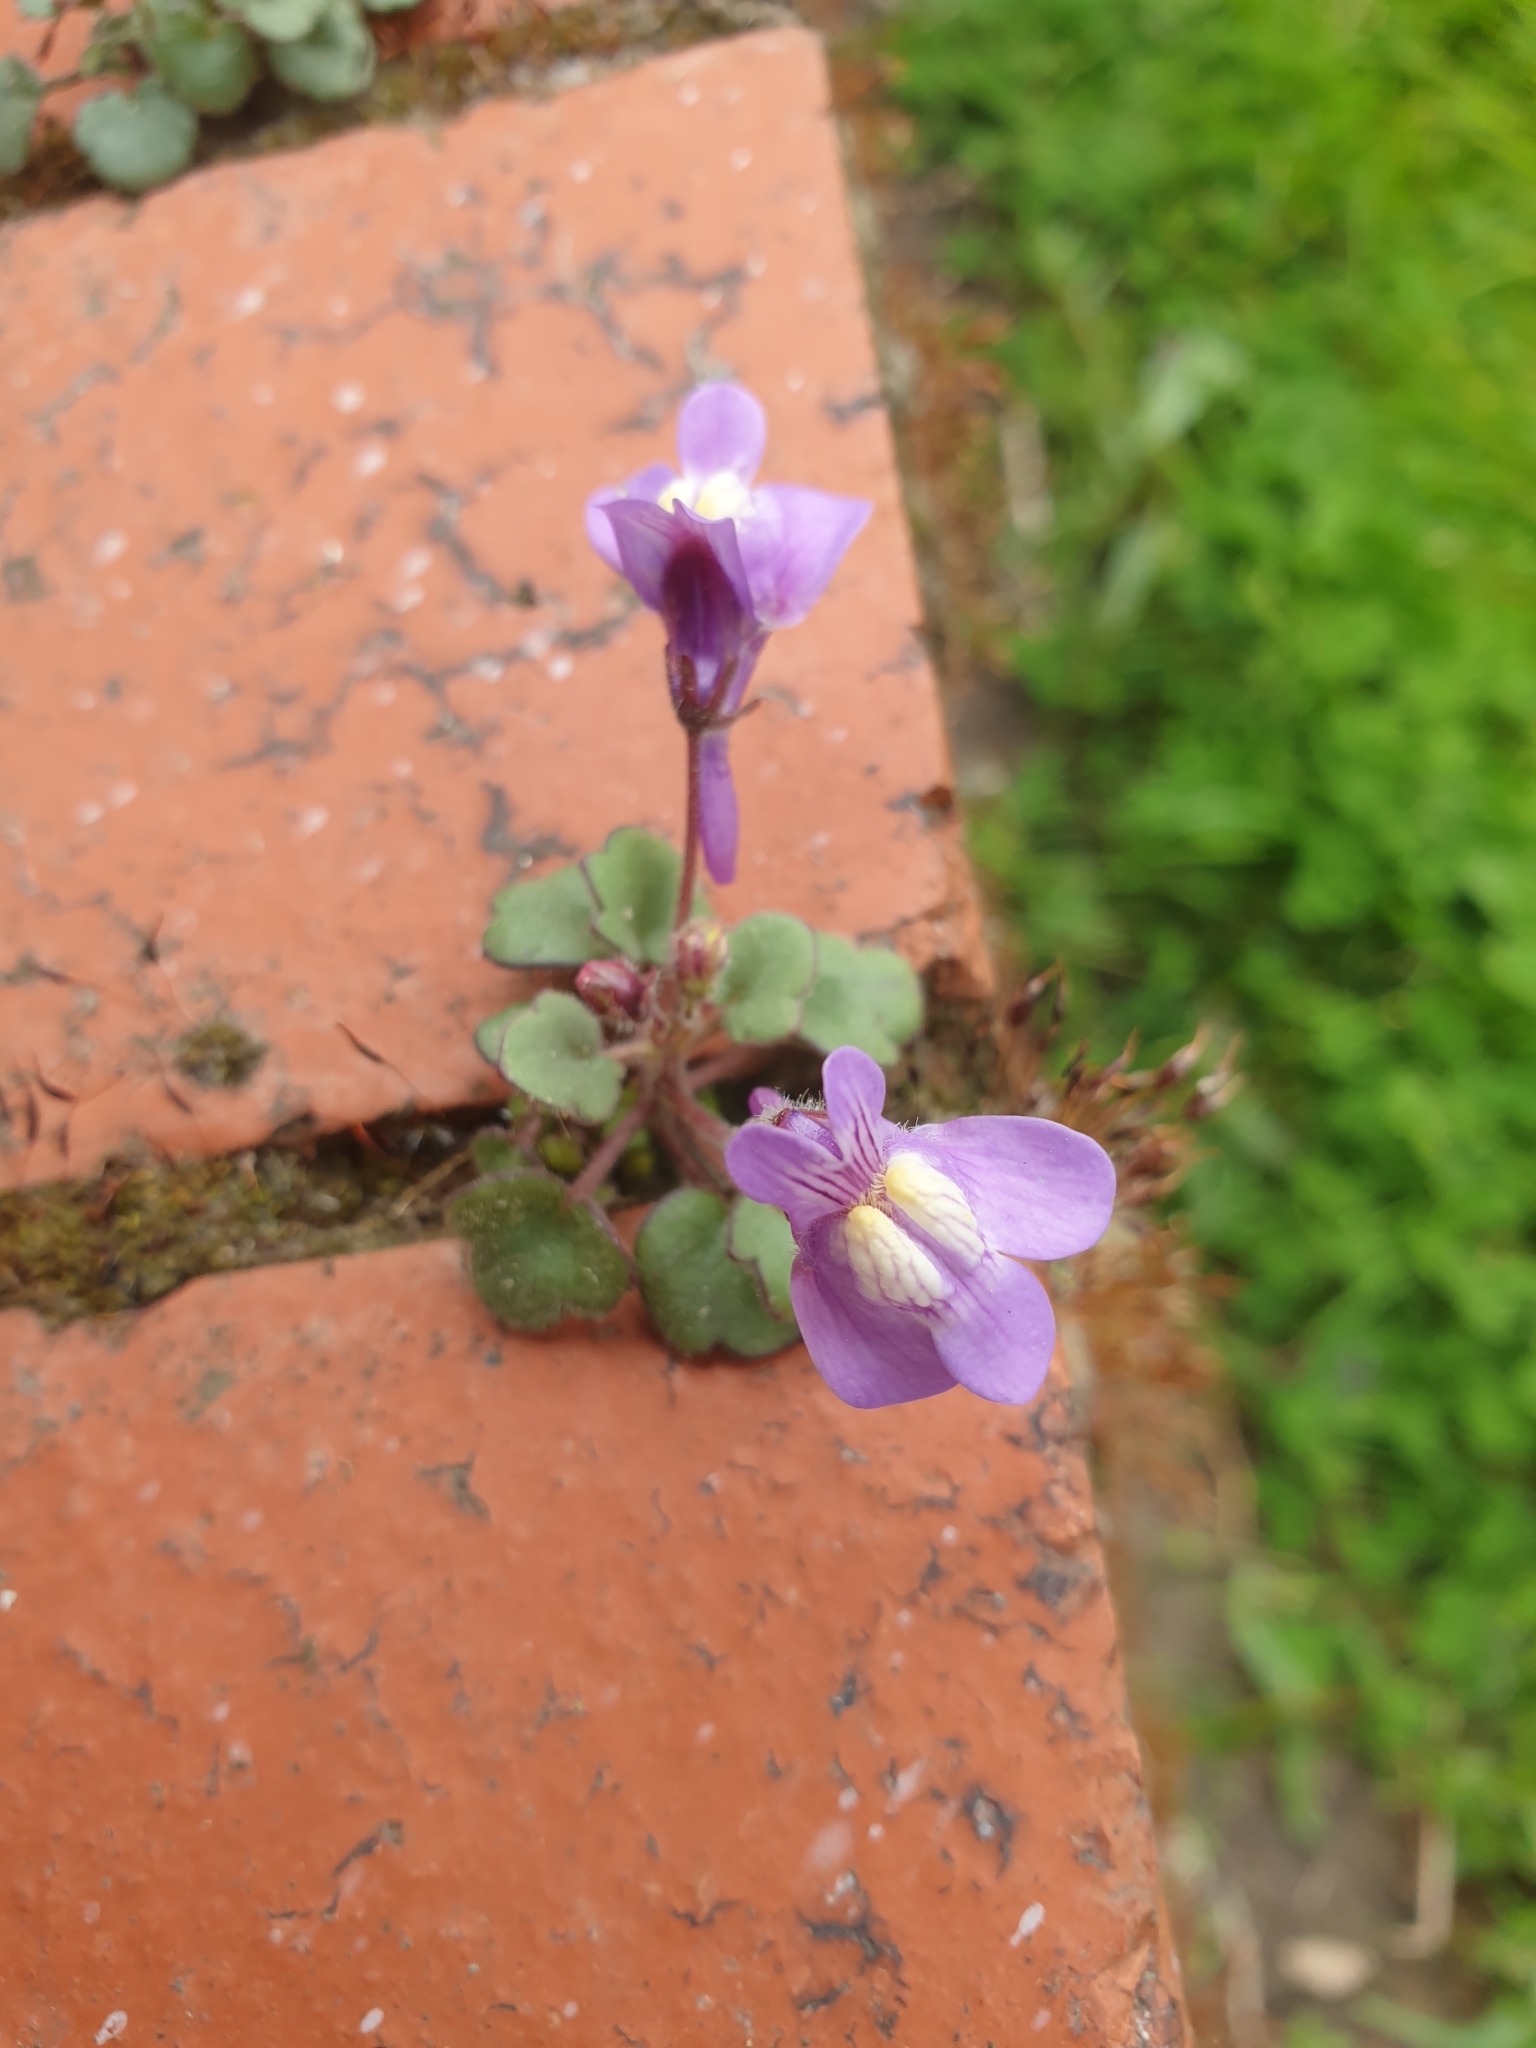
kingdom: Plantae
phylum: Tracheophyta
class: Magnoliopsida
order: Lamiales
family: Plantaginaceae
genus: Cymbalaria
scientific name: Cymbalaria muralis
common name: Ivy-leaved toadflax
